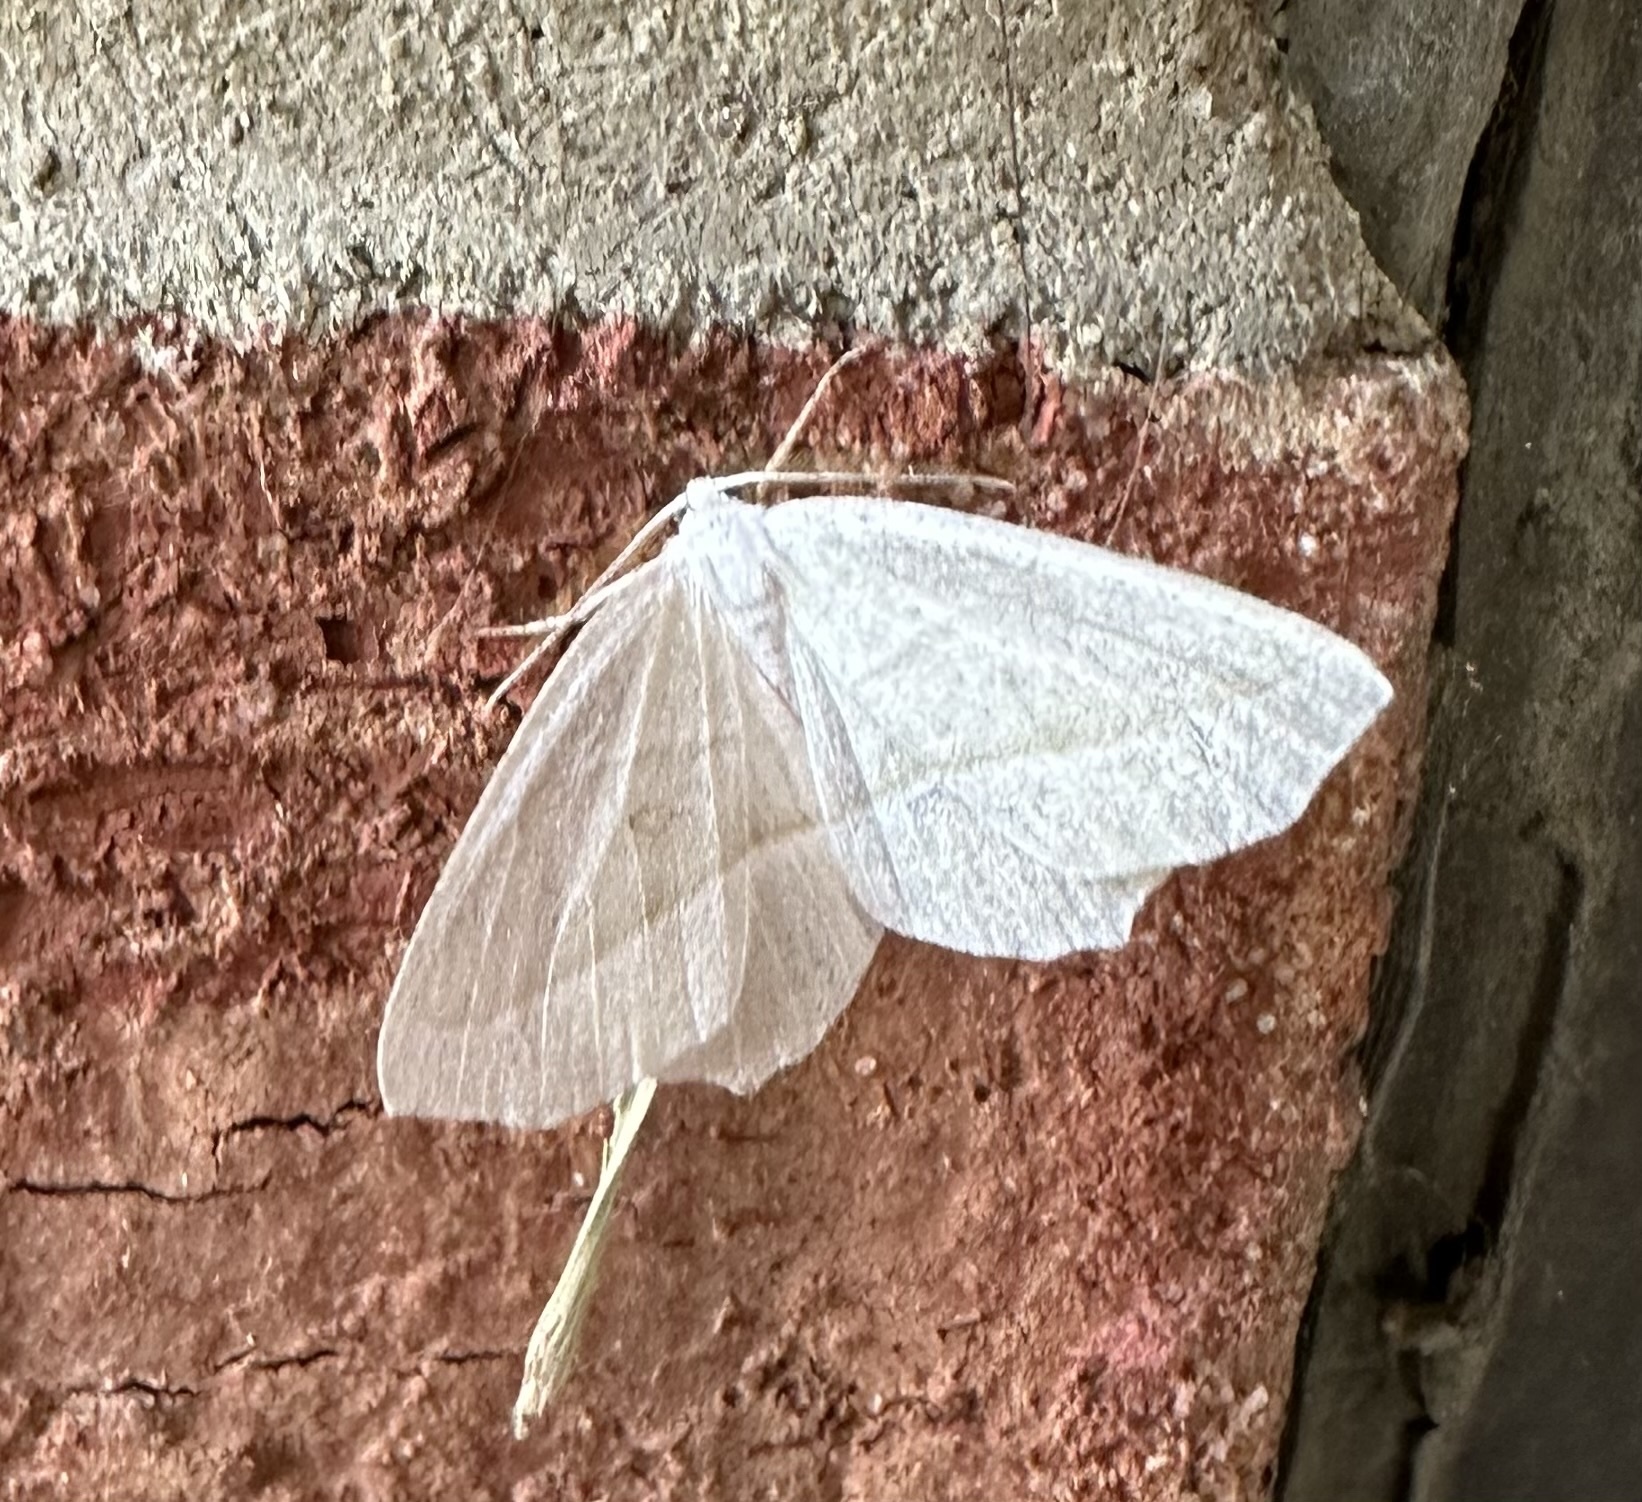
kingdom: Animalia
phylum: Arthropoda
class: Insecta
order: Lepidoptera
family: Geometridae
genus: Campaea
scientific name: Campaea perlata
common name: Fringed looper
